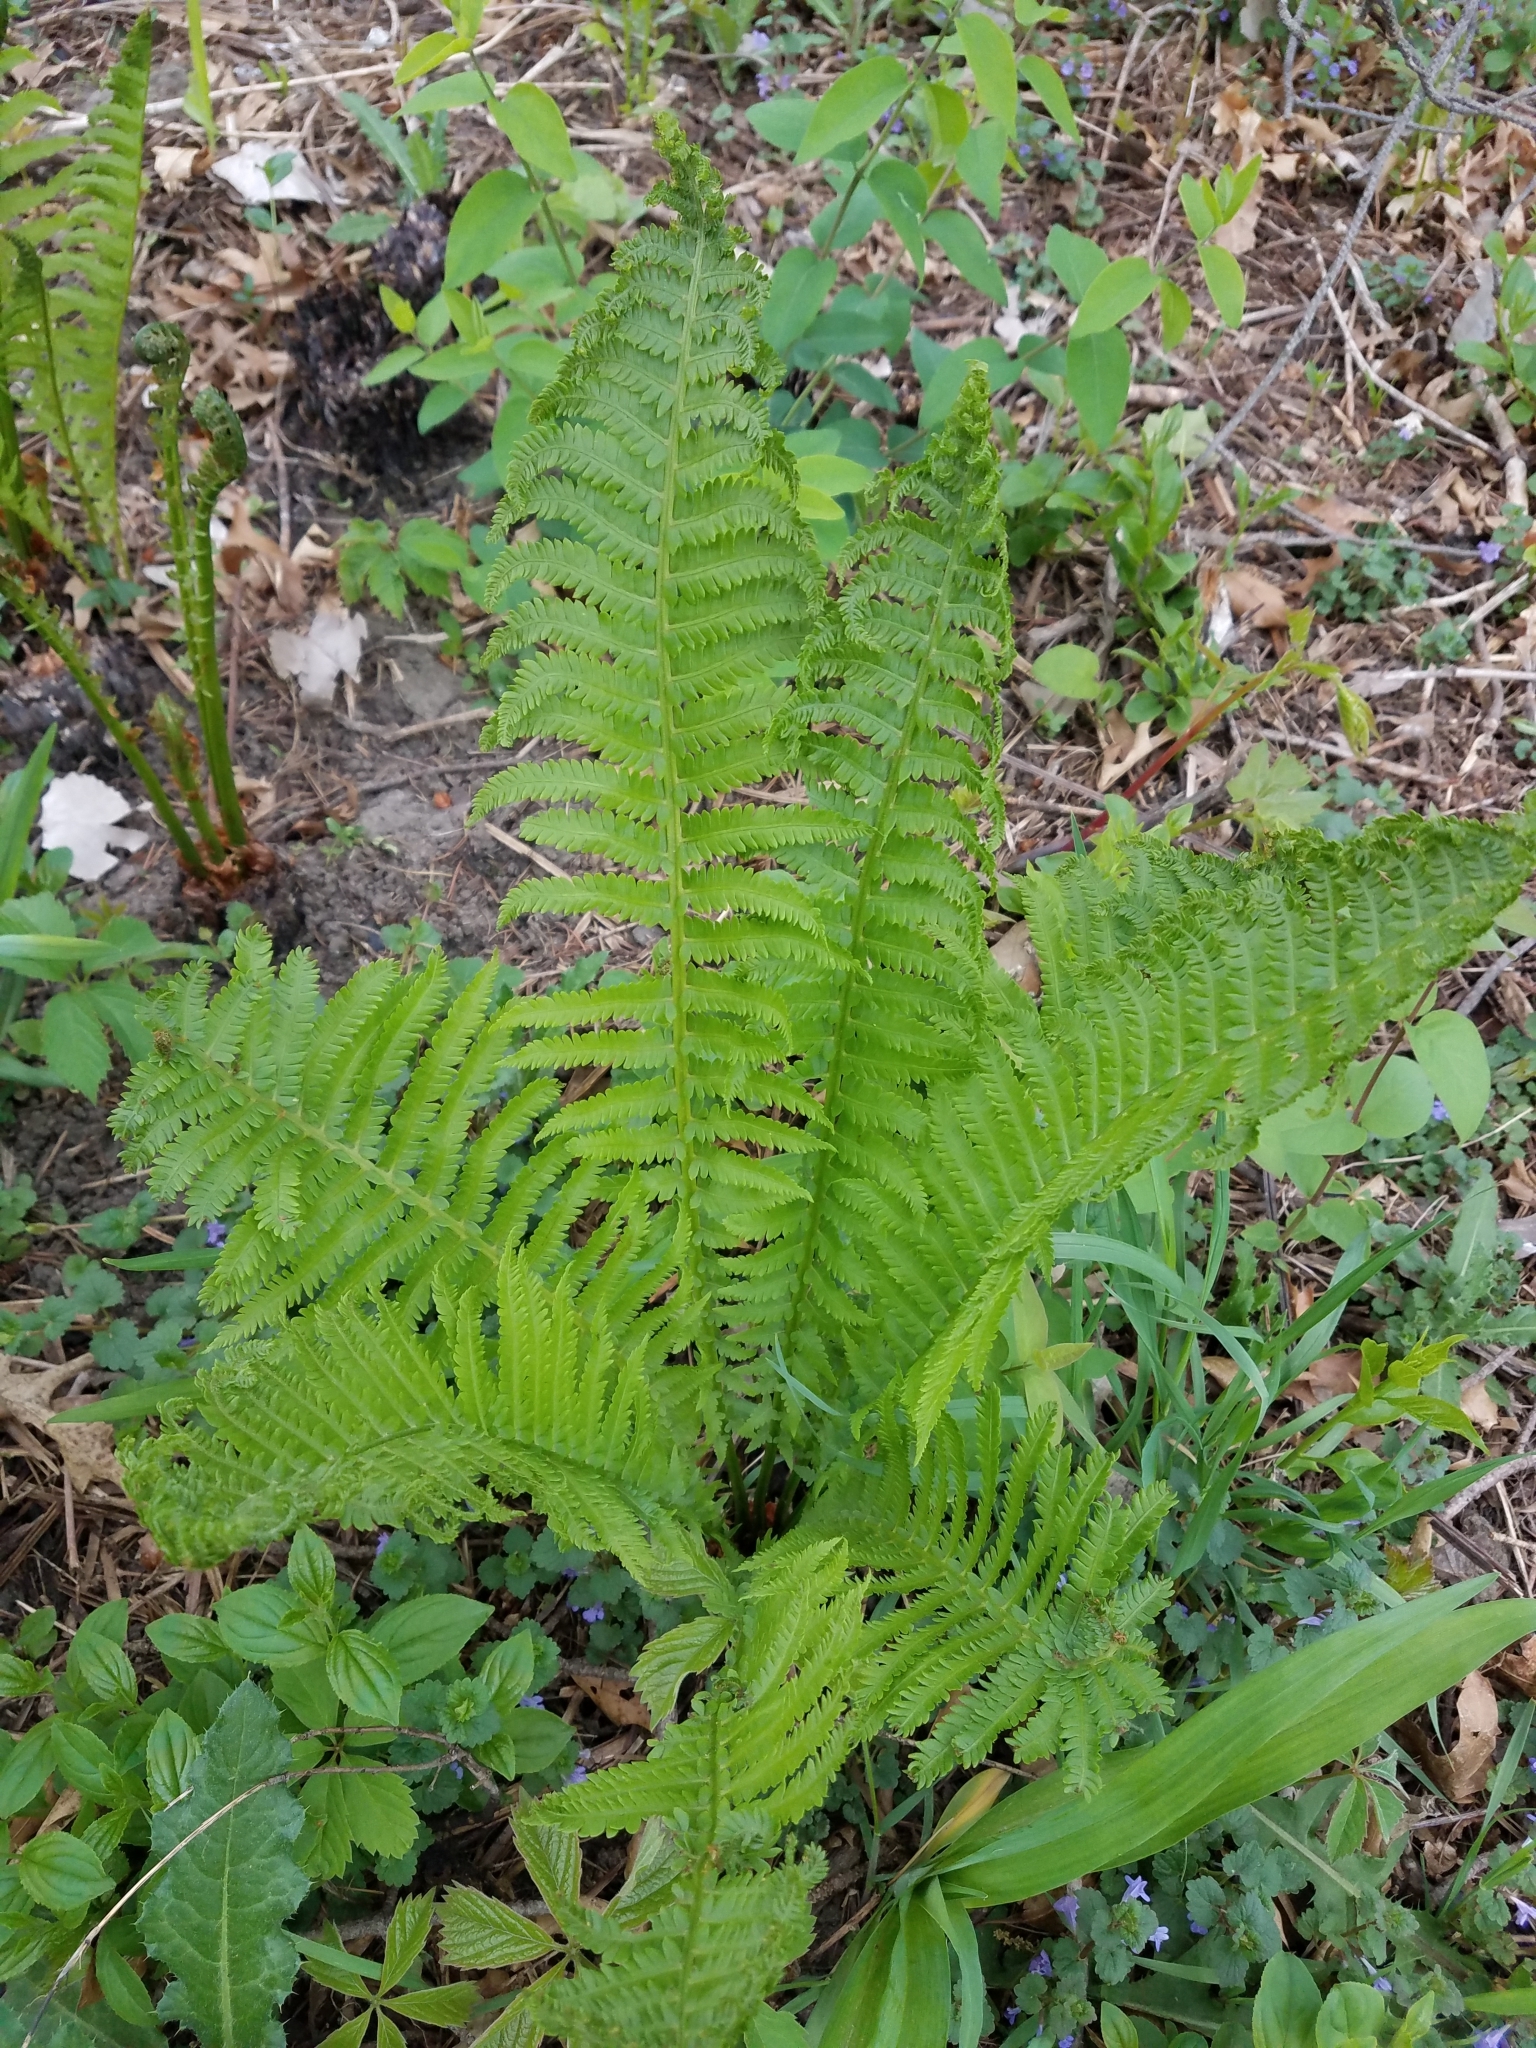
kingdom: Plantae
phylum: Tracheophyta
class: Polypodiopsida
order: Polypodiales
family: Onocleaceae
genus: Matteuccia
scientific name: Matteuccia struthiopteris
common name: Ostrich fern
